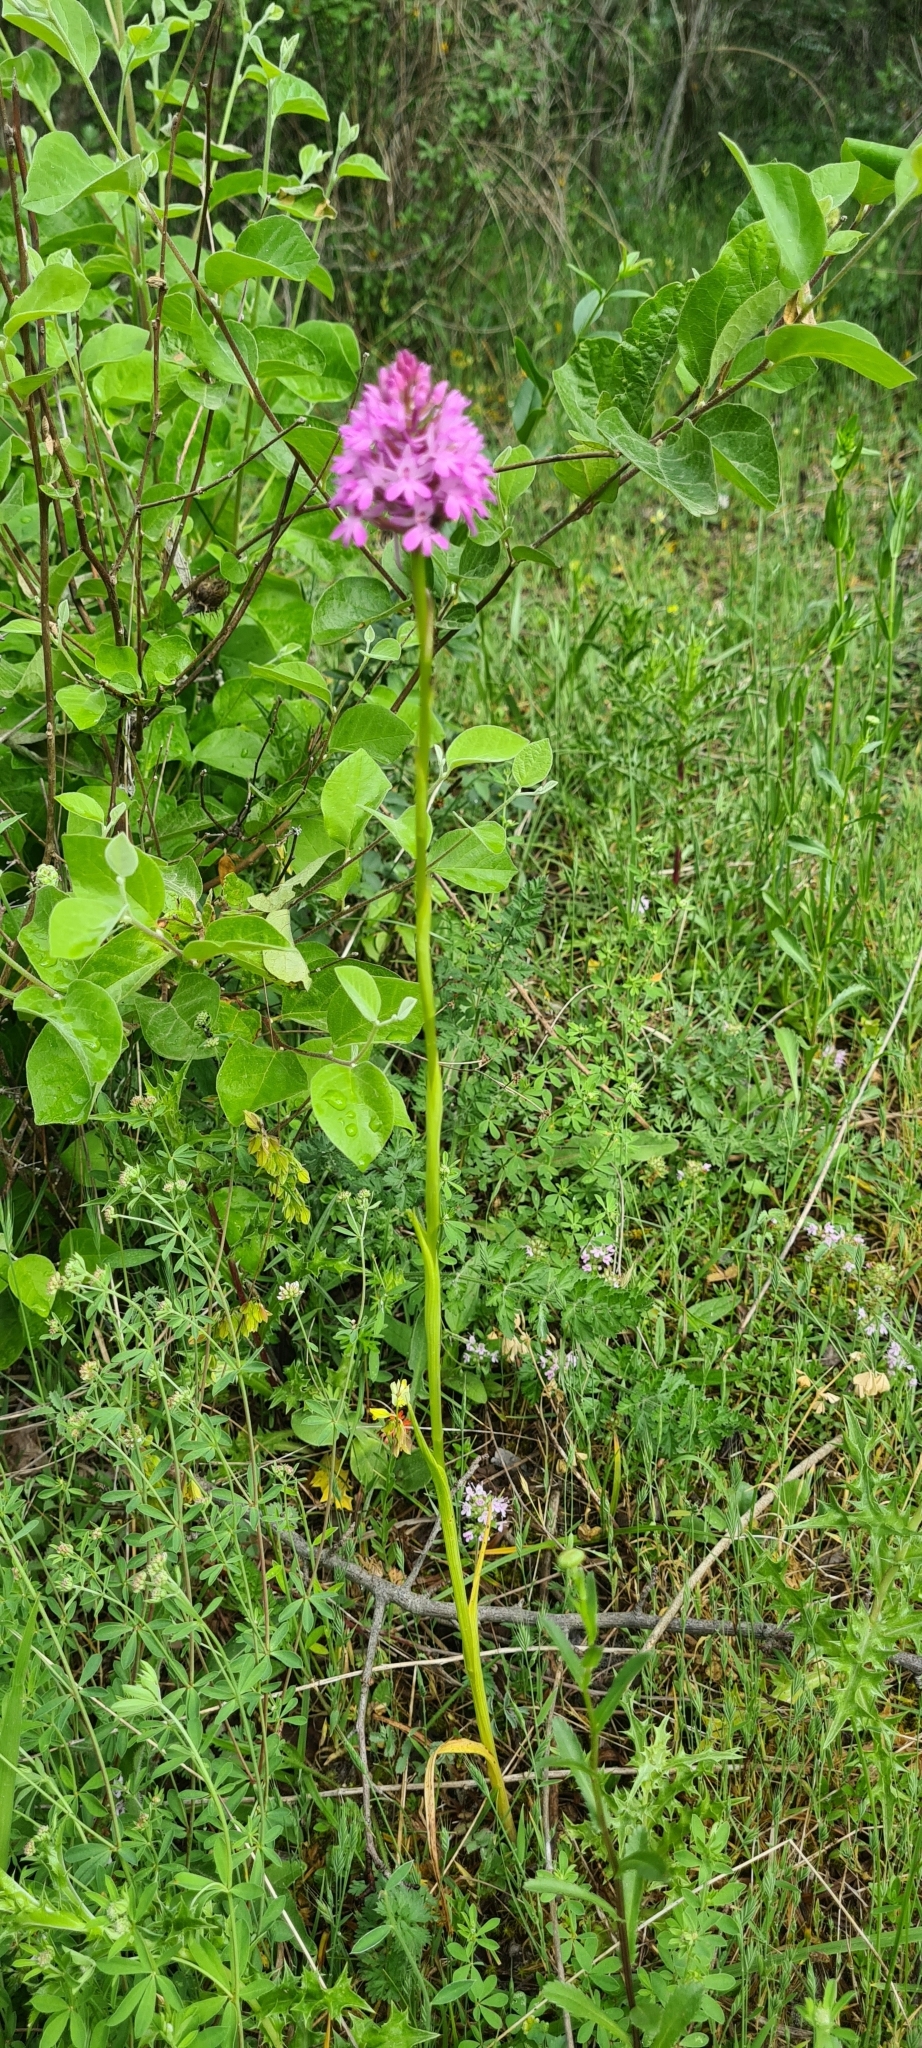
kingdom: Plantae
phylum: Tracheophyta
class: Liliopsida
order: Asparagales
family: Orchidaceae
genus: Anacamptis
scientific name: Anacamptis pyramidalis
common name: Pyramidal orchid
